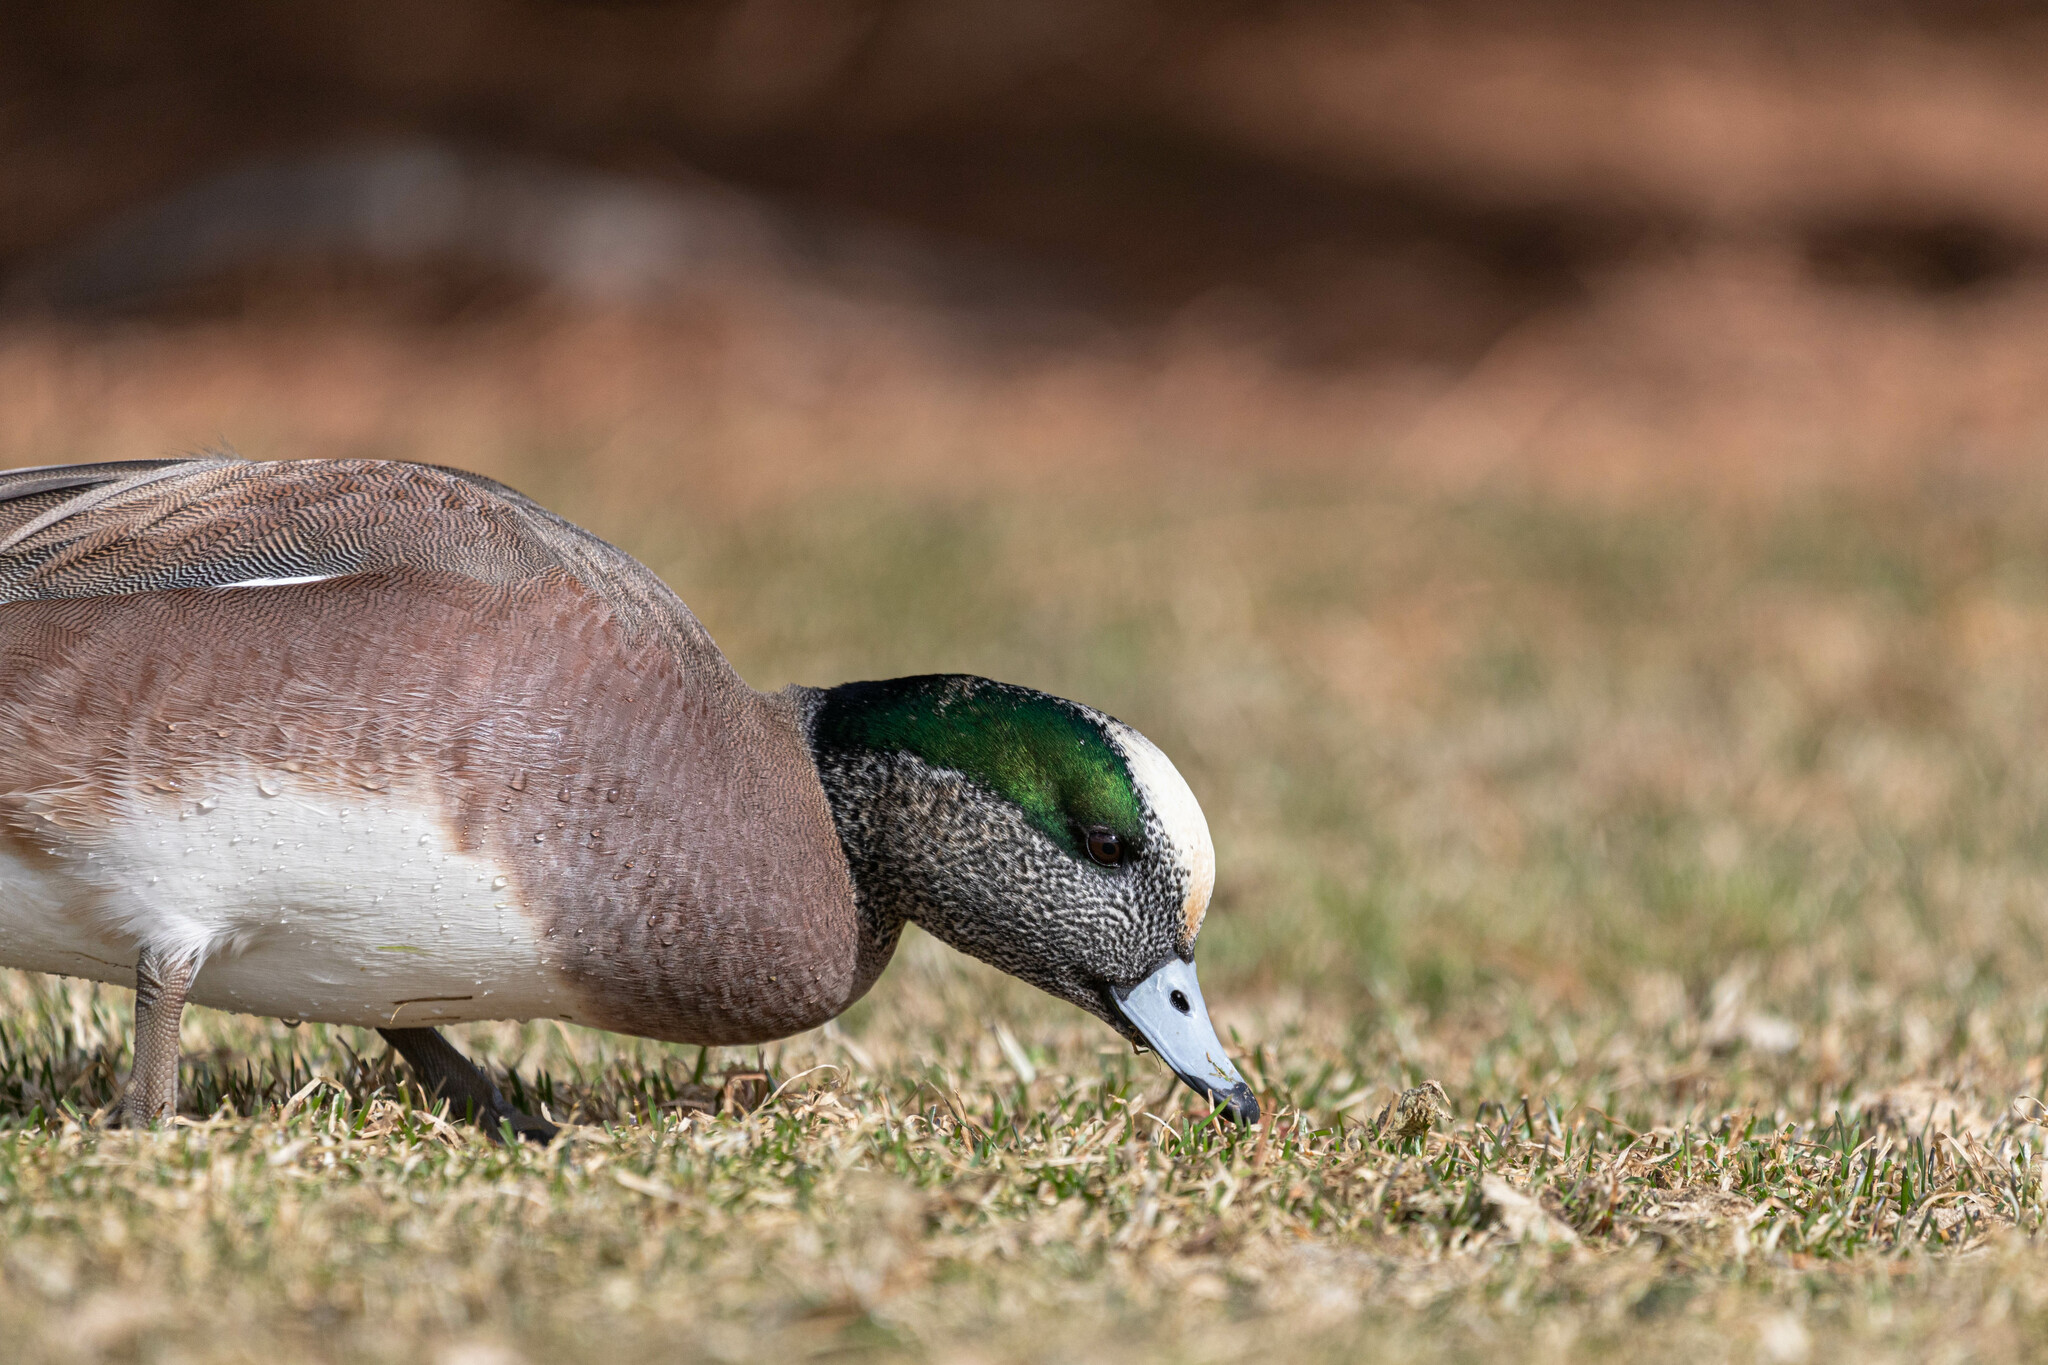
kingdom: Animalia
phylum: Chordata
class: Aves
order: Anseriformes
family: Anatidae
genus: Mareca
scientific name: Mareca americana
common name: American wigeon
